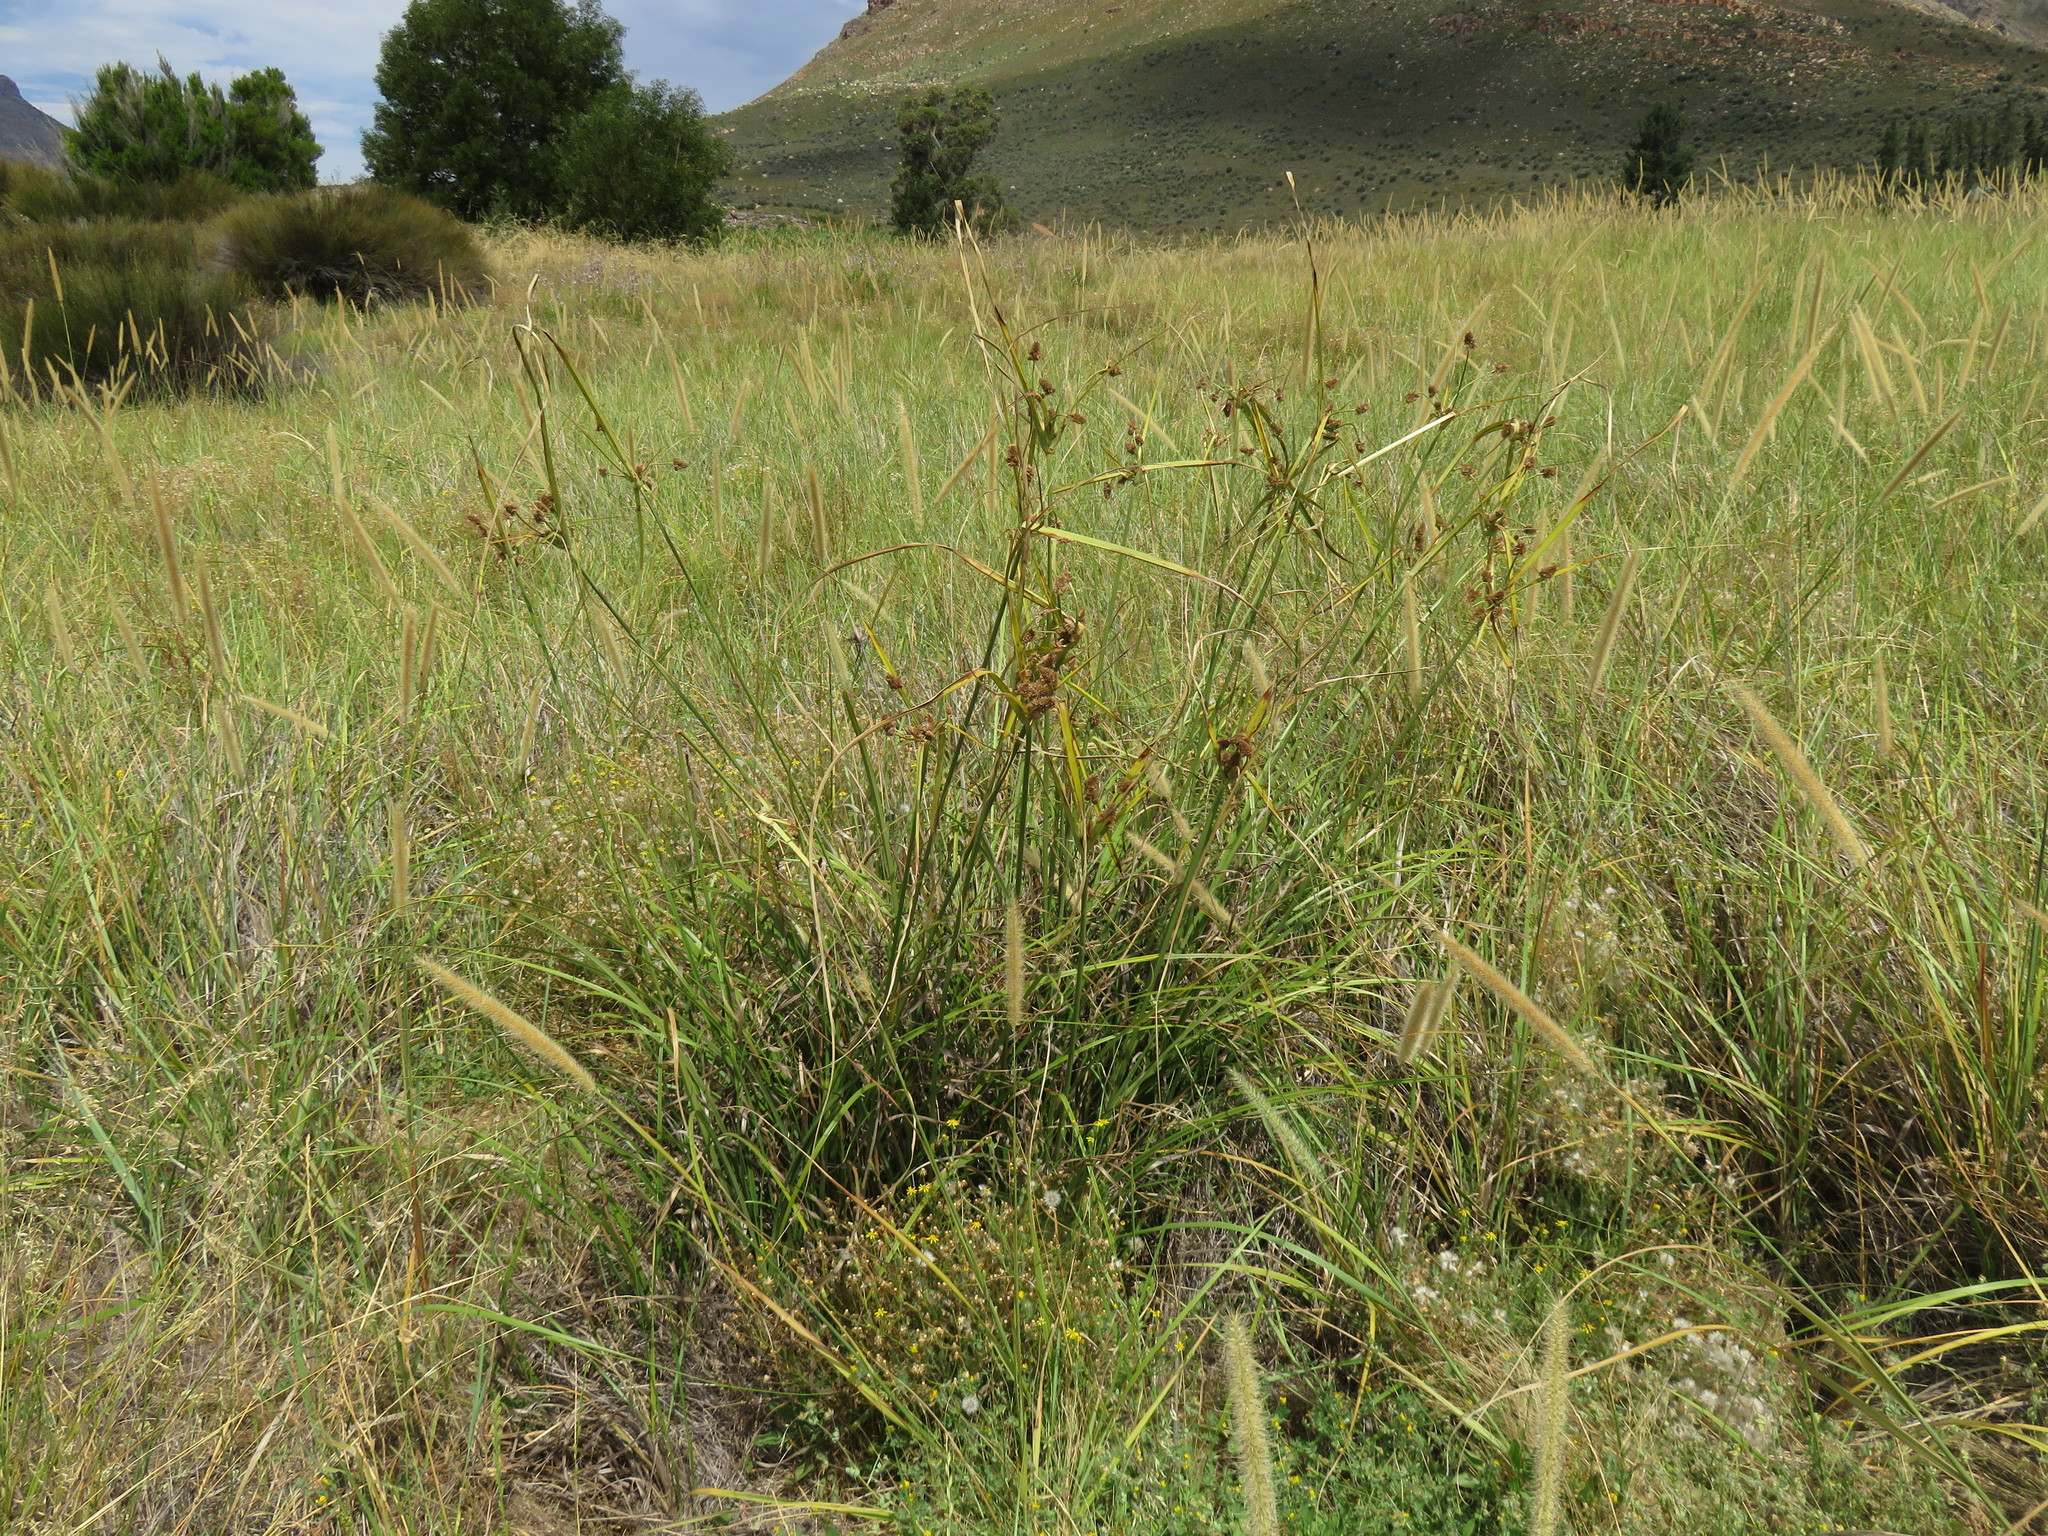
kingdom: Plantae
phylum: Tracheophyta
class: Liliopsida
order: Poales
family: Cyperaceae
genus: Cyperus
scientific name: Cyperus thunbergii
